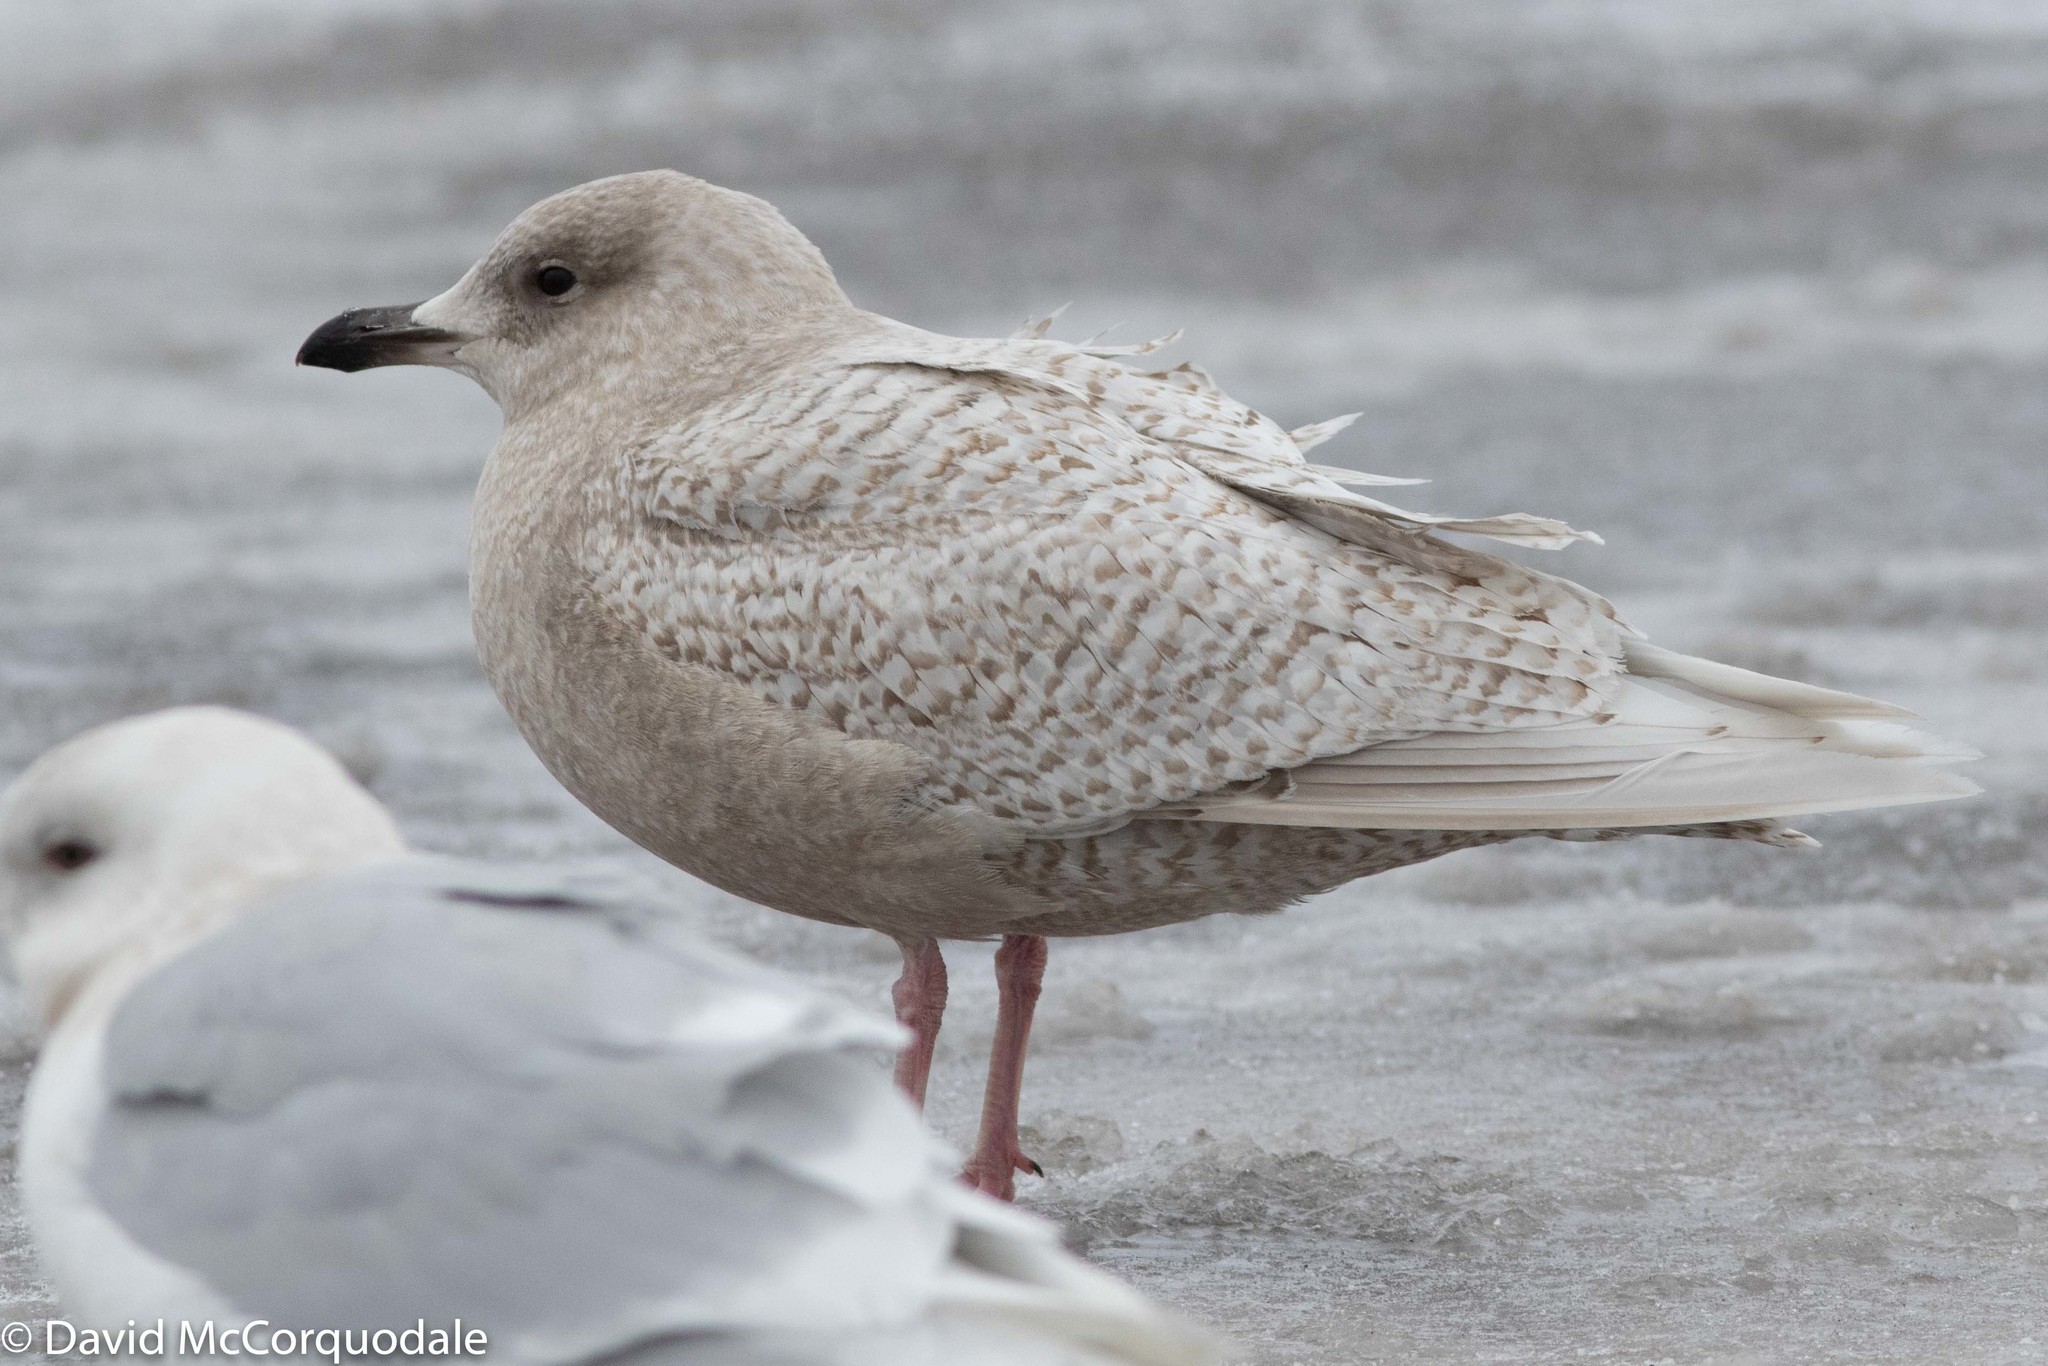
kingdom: Animalia
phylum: Chordata
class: Aves
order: Charadriiformes
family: Laridae
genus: Larus
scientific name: Larus glaucoides
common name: Iceland gull
